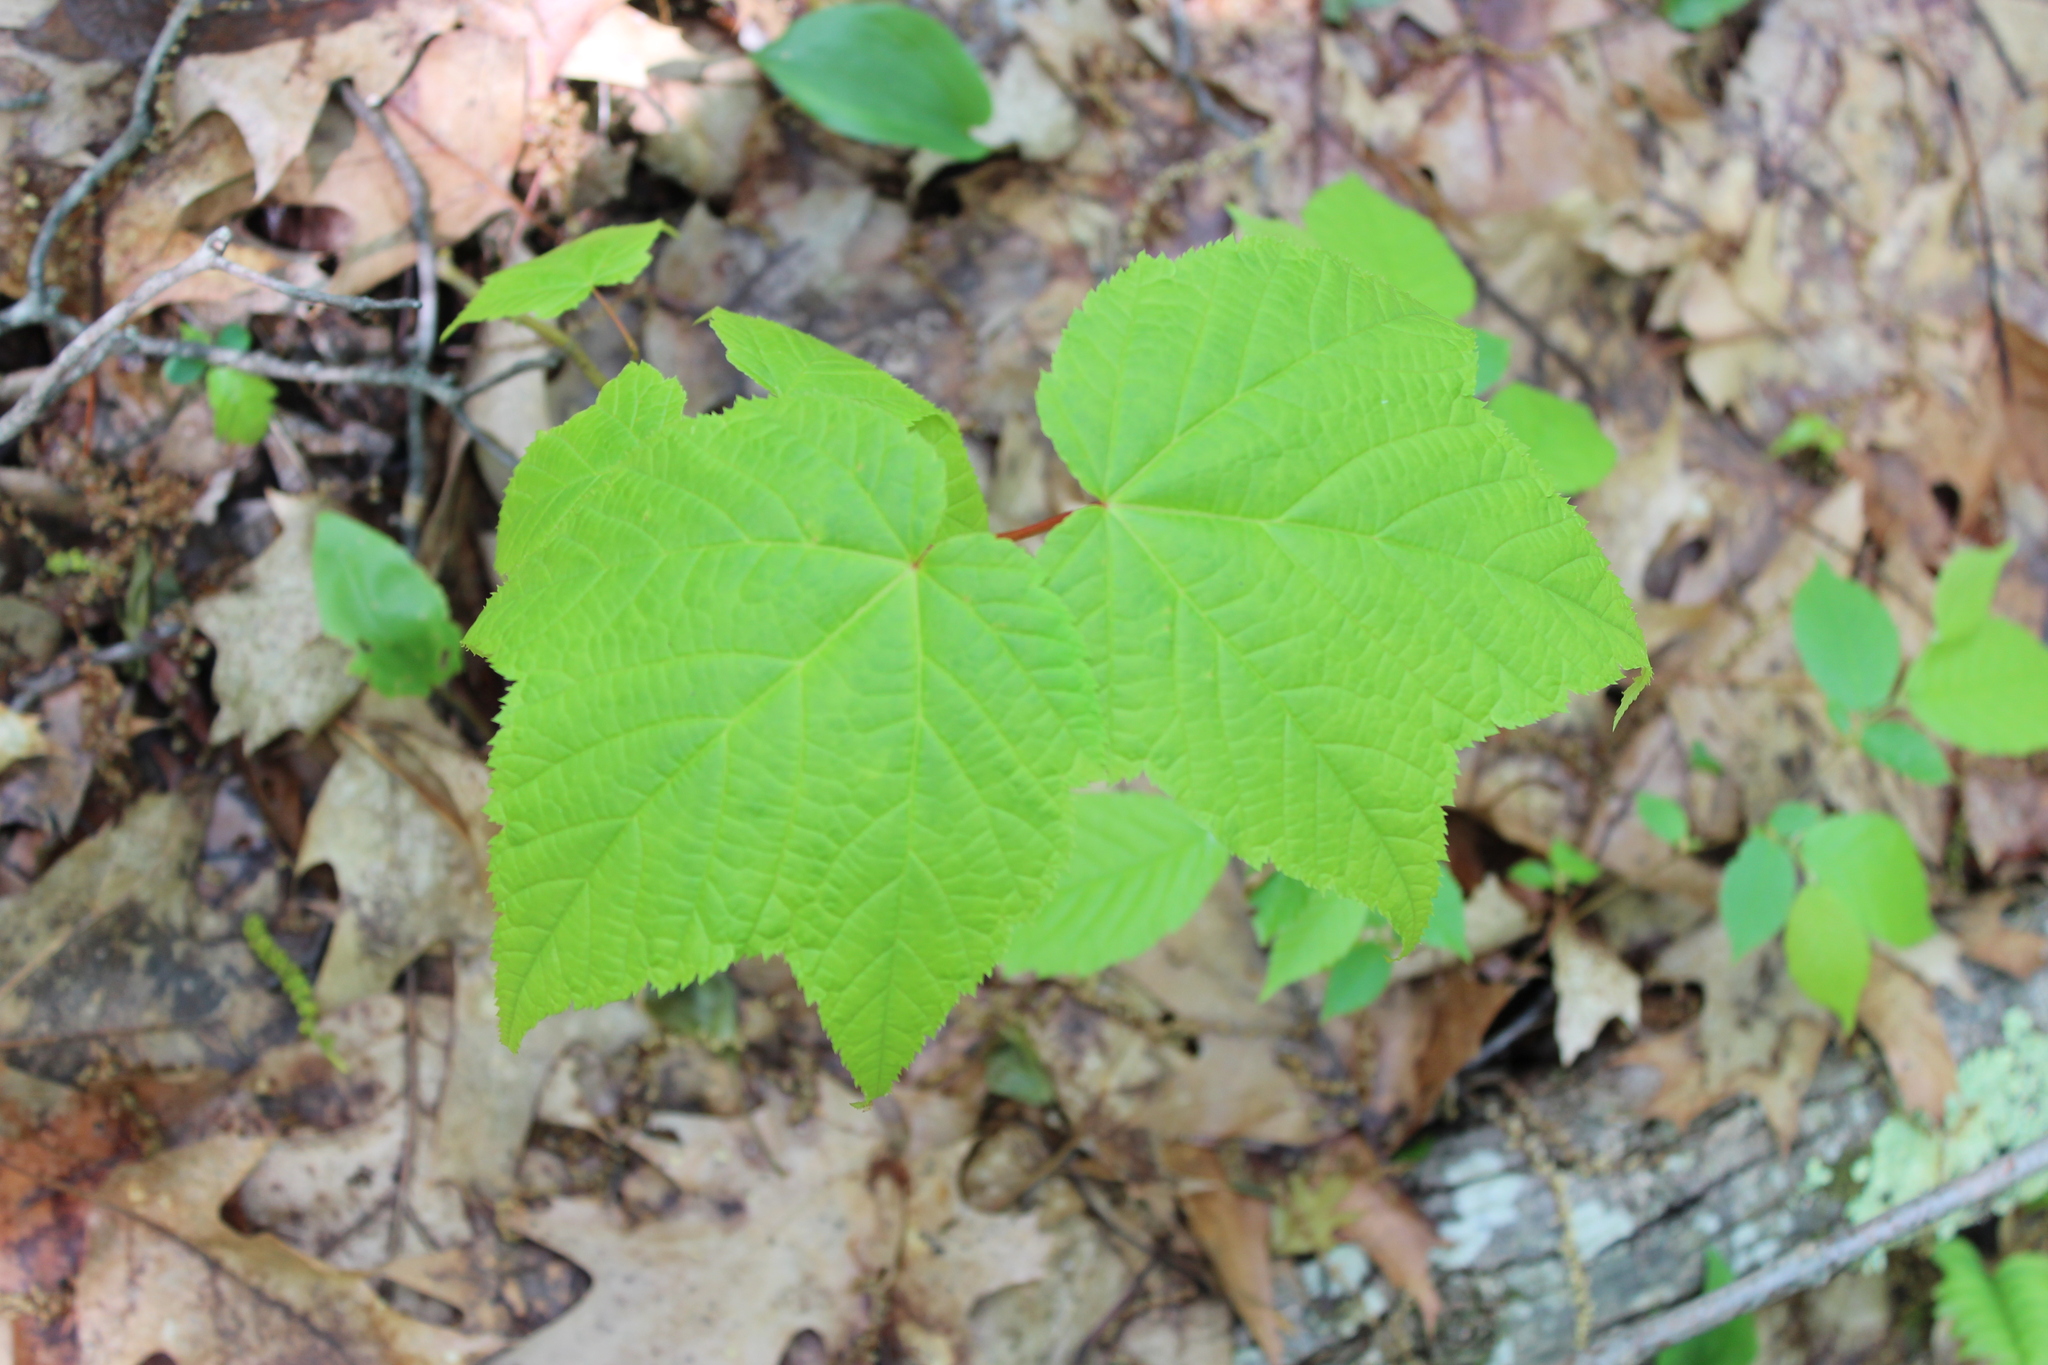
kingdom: Plantae
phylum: Tracheophyta
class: Magnoliopsida
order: Sapindales
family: Sapindaceae
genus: Acer
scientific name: Acer pensylvanicum
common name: Moosewood
